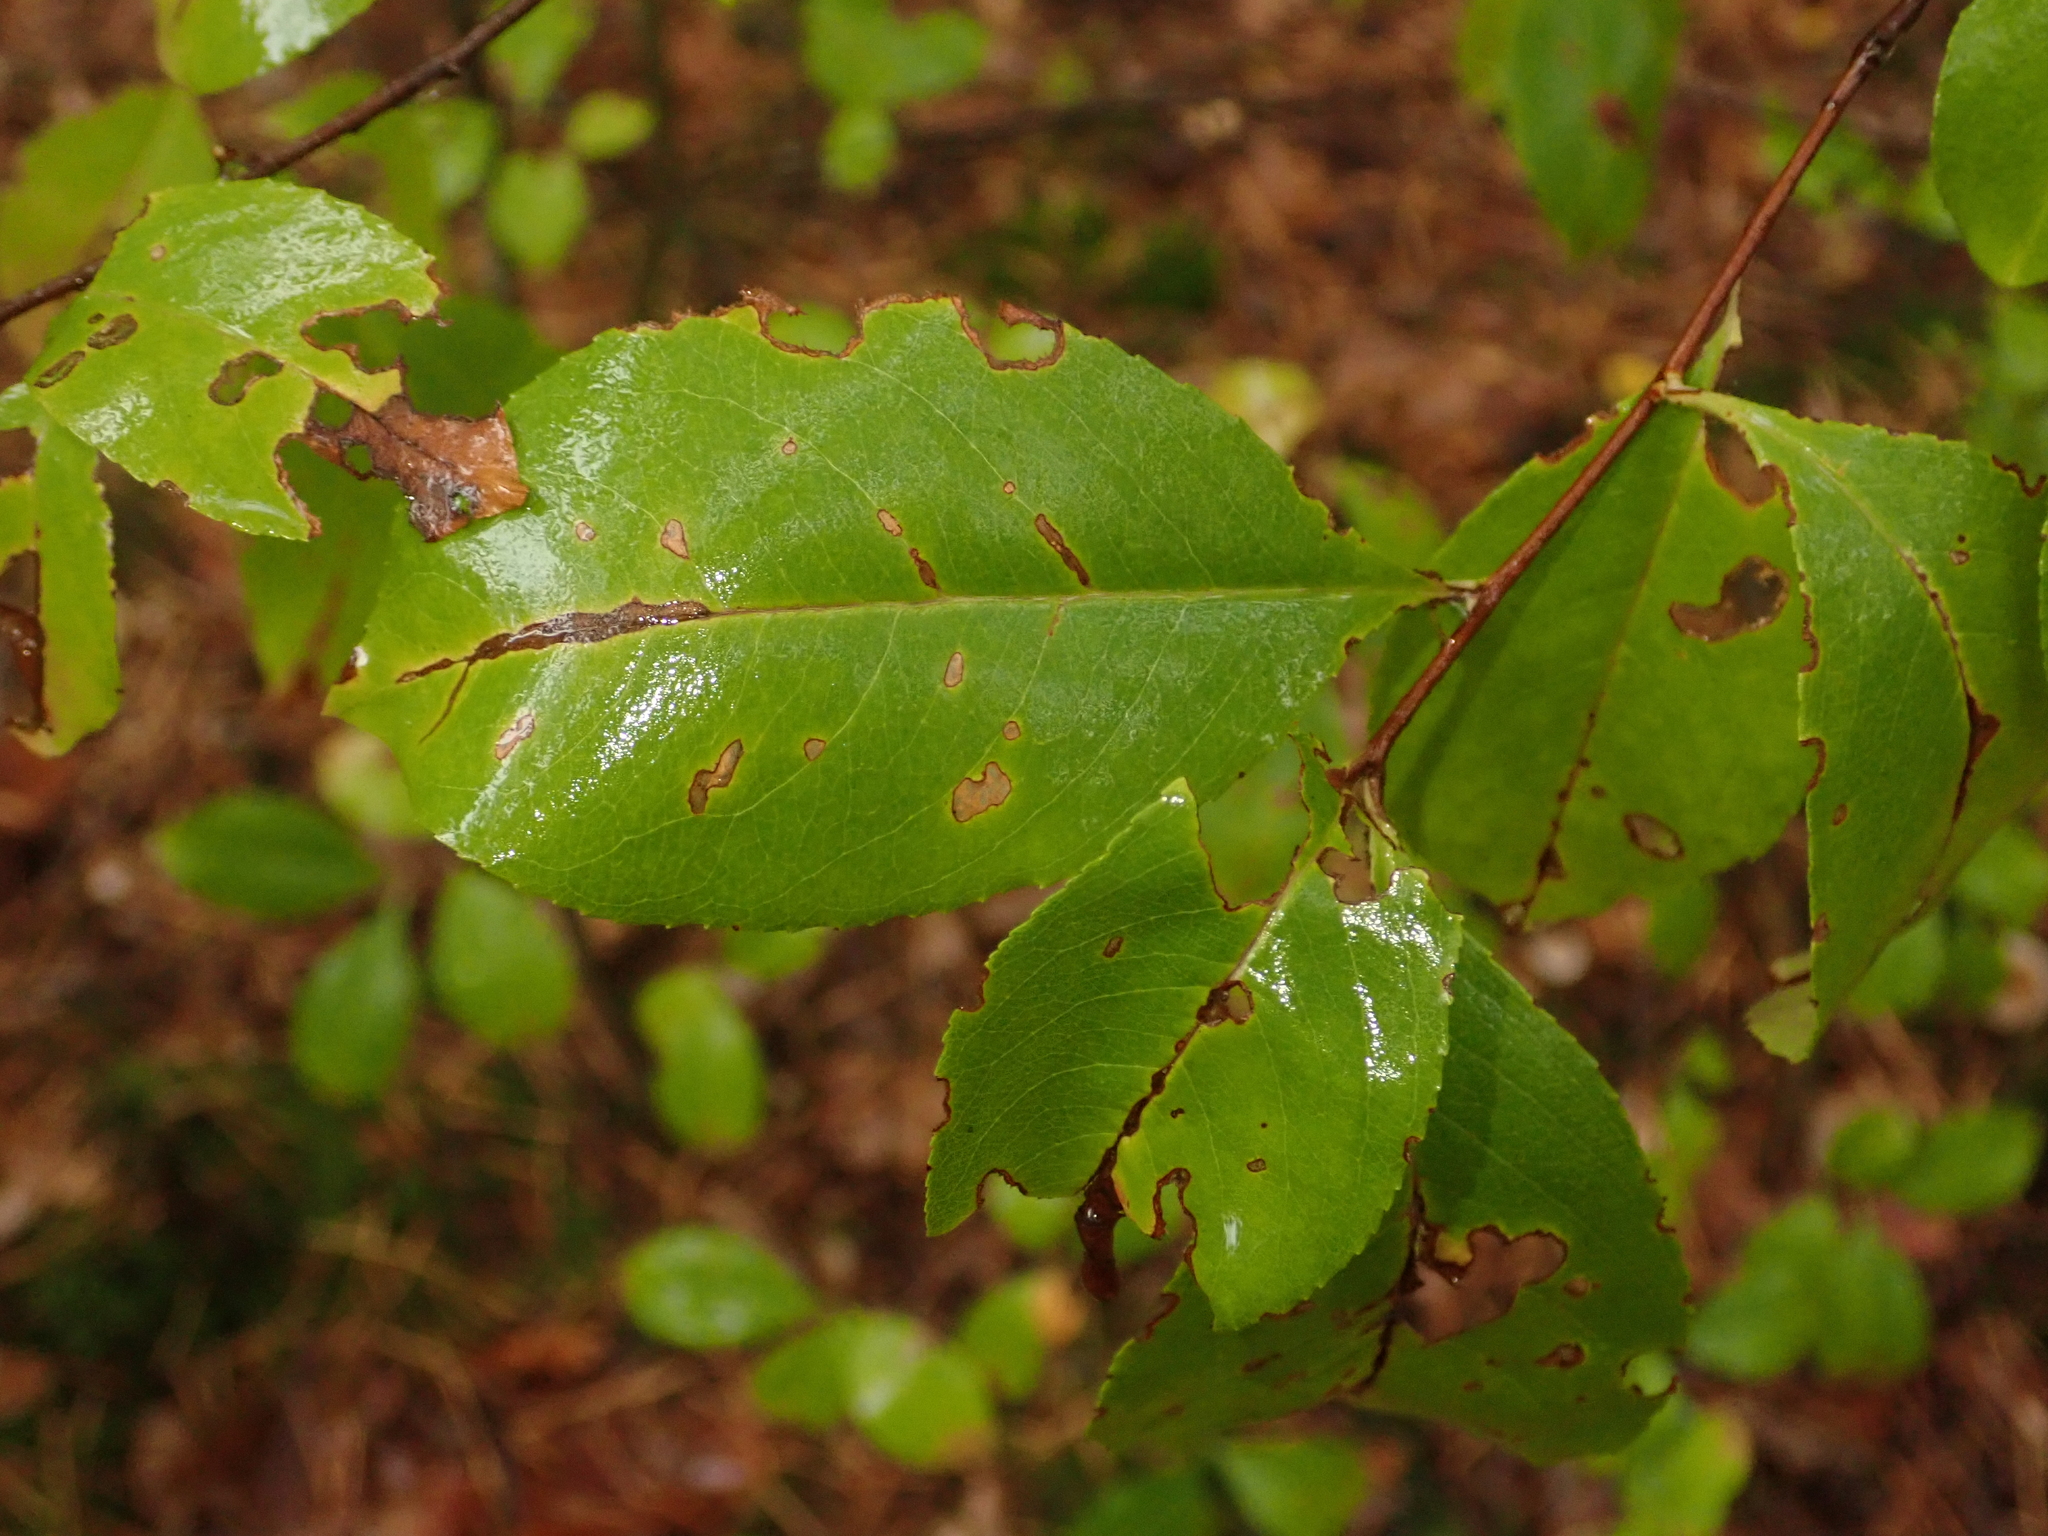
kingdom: Plantae
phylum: Tracheophyta
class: Magnoliopsida
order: Rosales
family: Rosaceae
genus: Prunus
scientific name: Prunus serotina
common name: Black cherry
